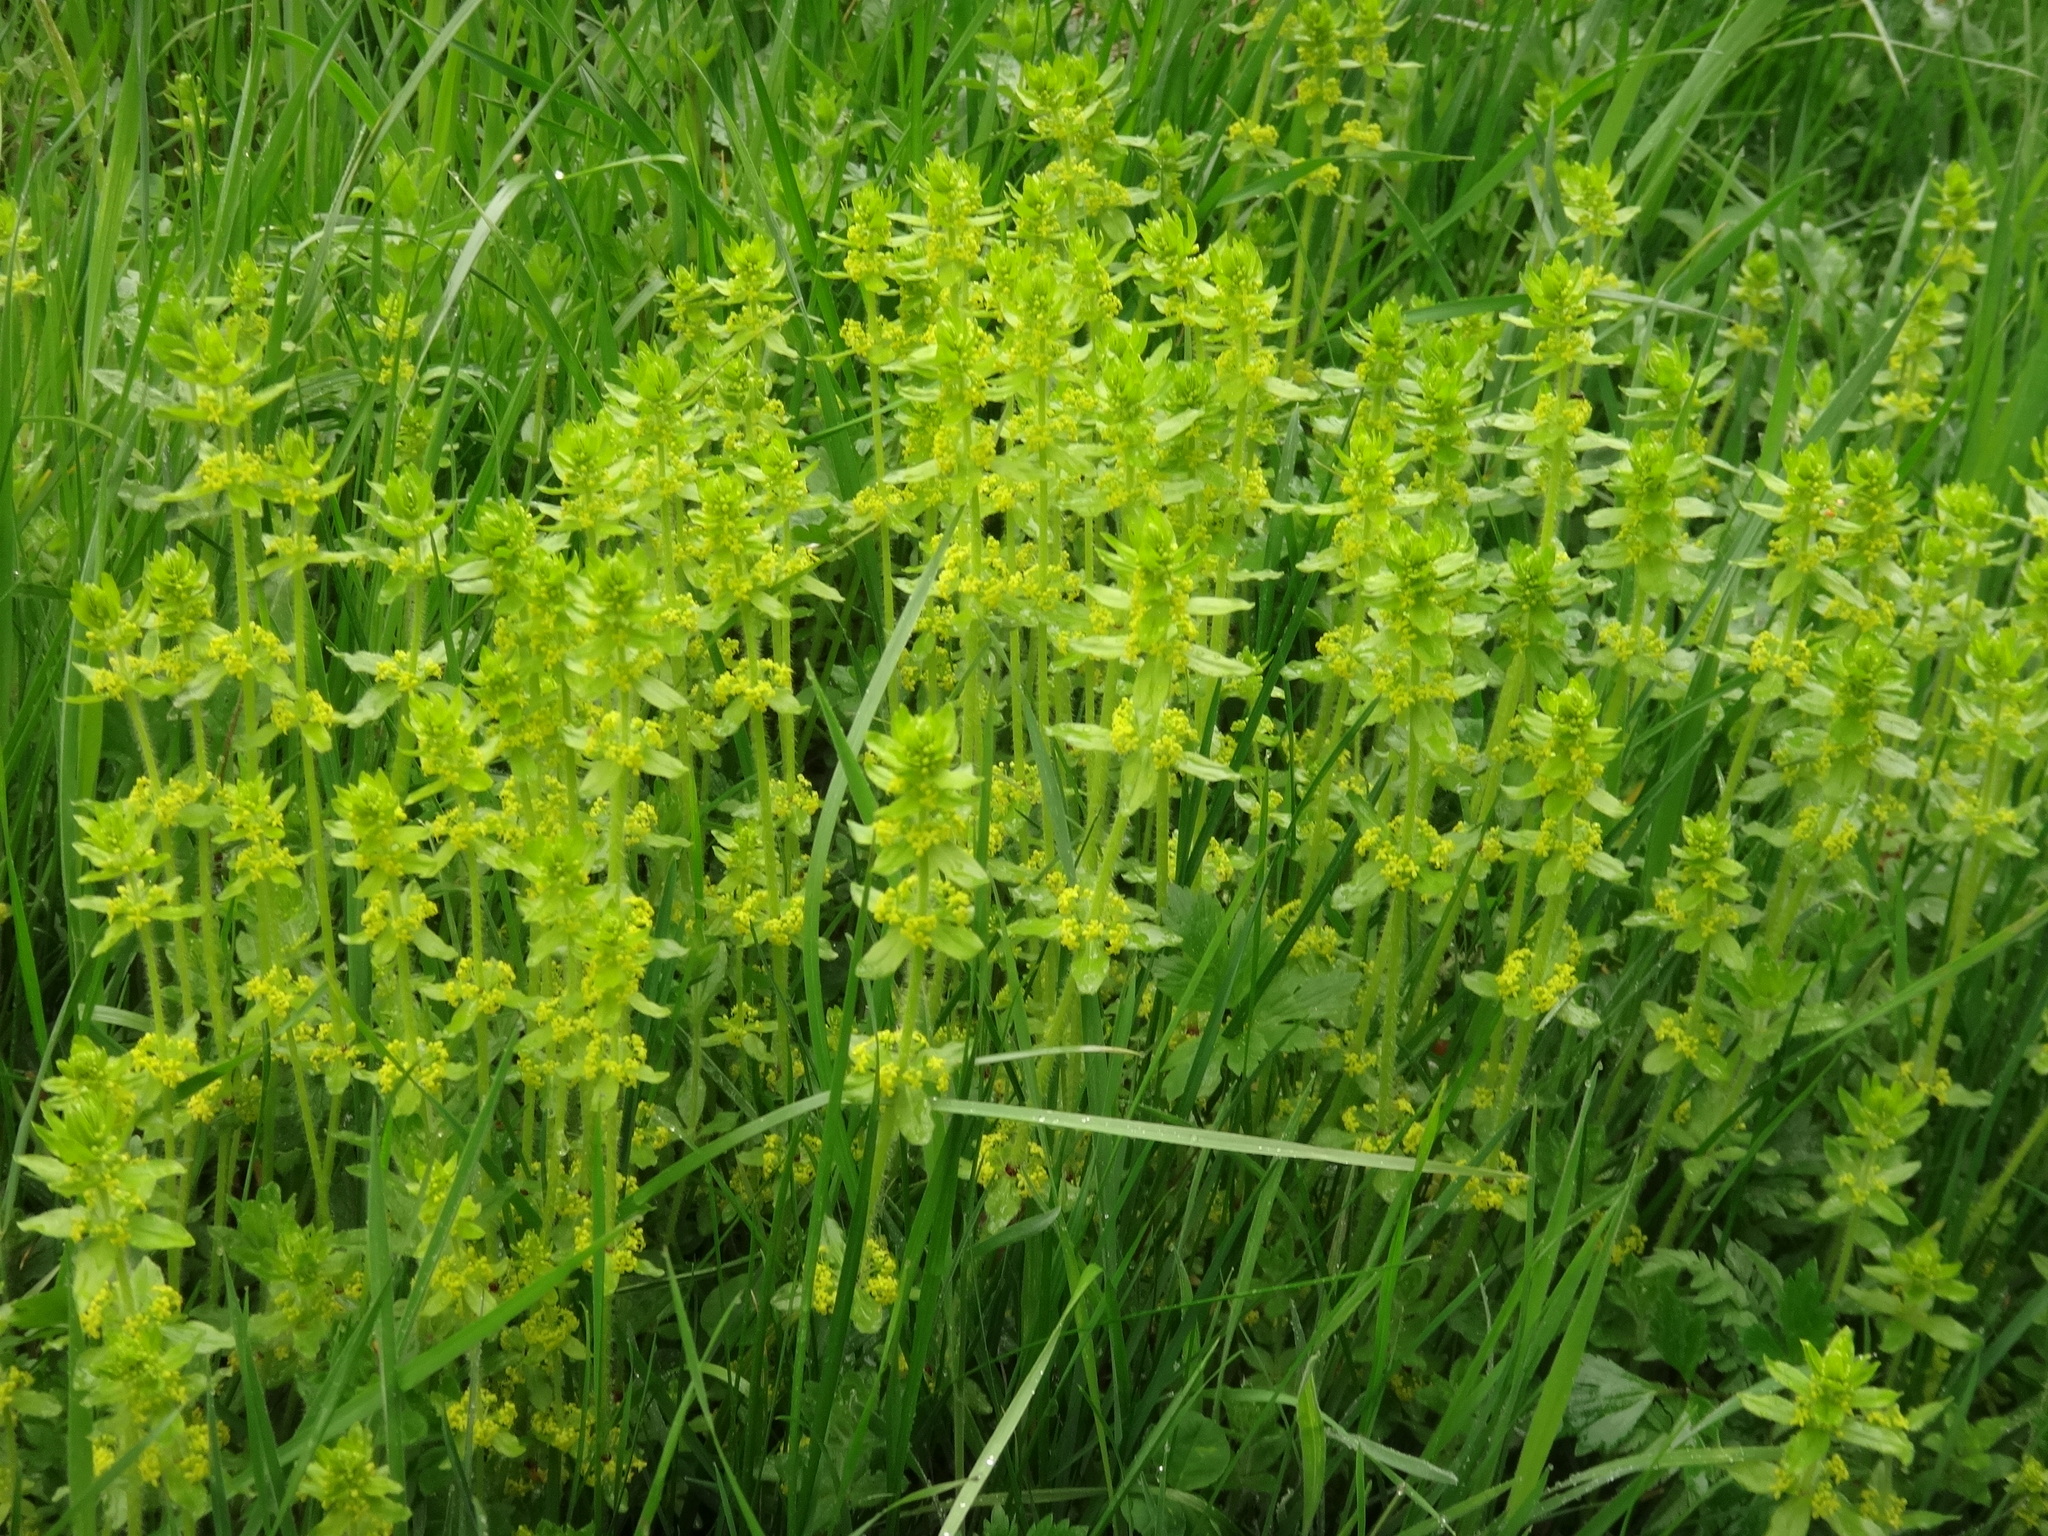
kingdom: Plantae
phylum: Tracheophyta
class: Magnoliopsida
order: Gentianales
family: Rubiaceae
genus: Cruciata
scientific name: Cruciata laevipes
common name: Crosswort
